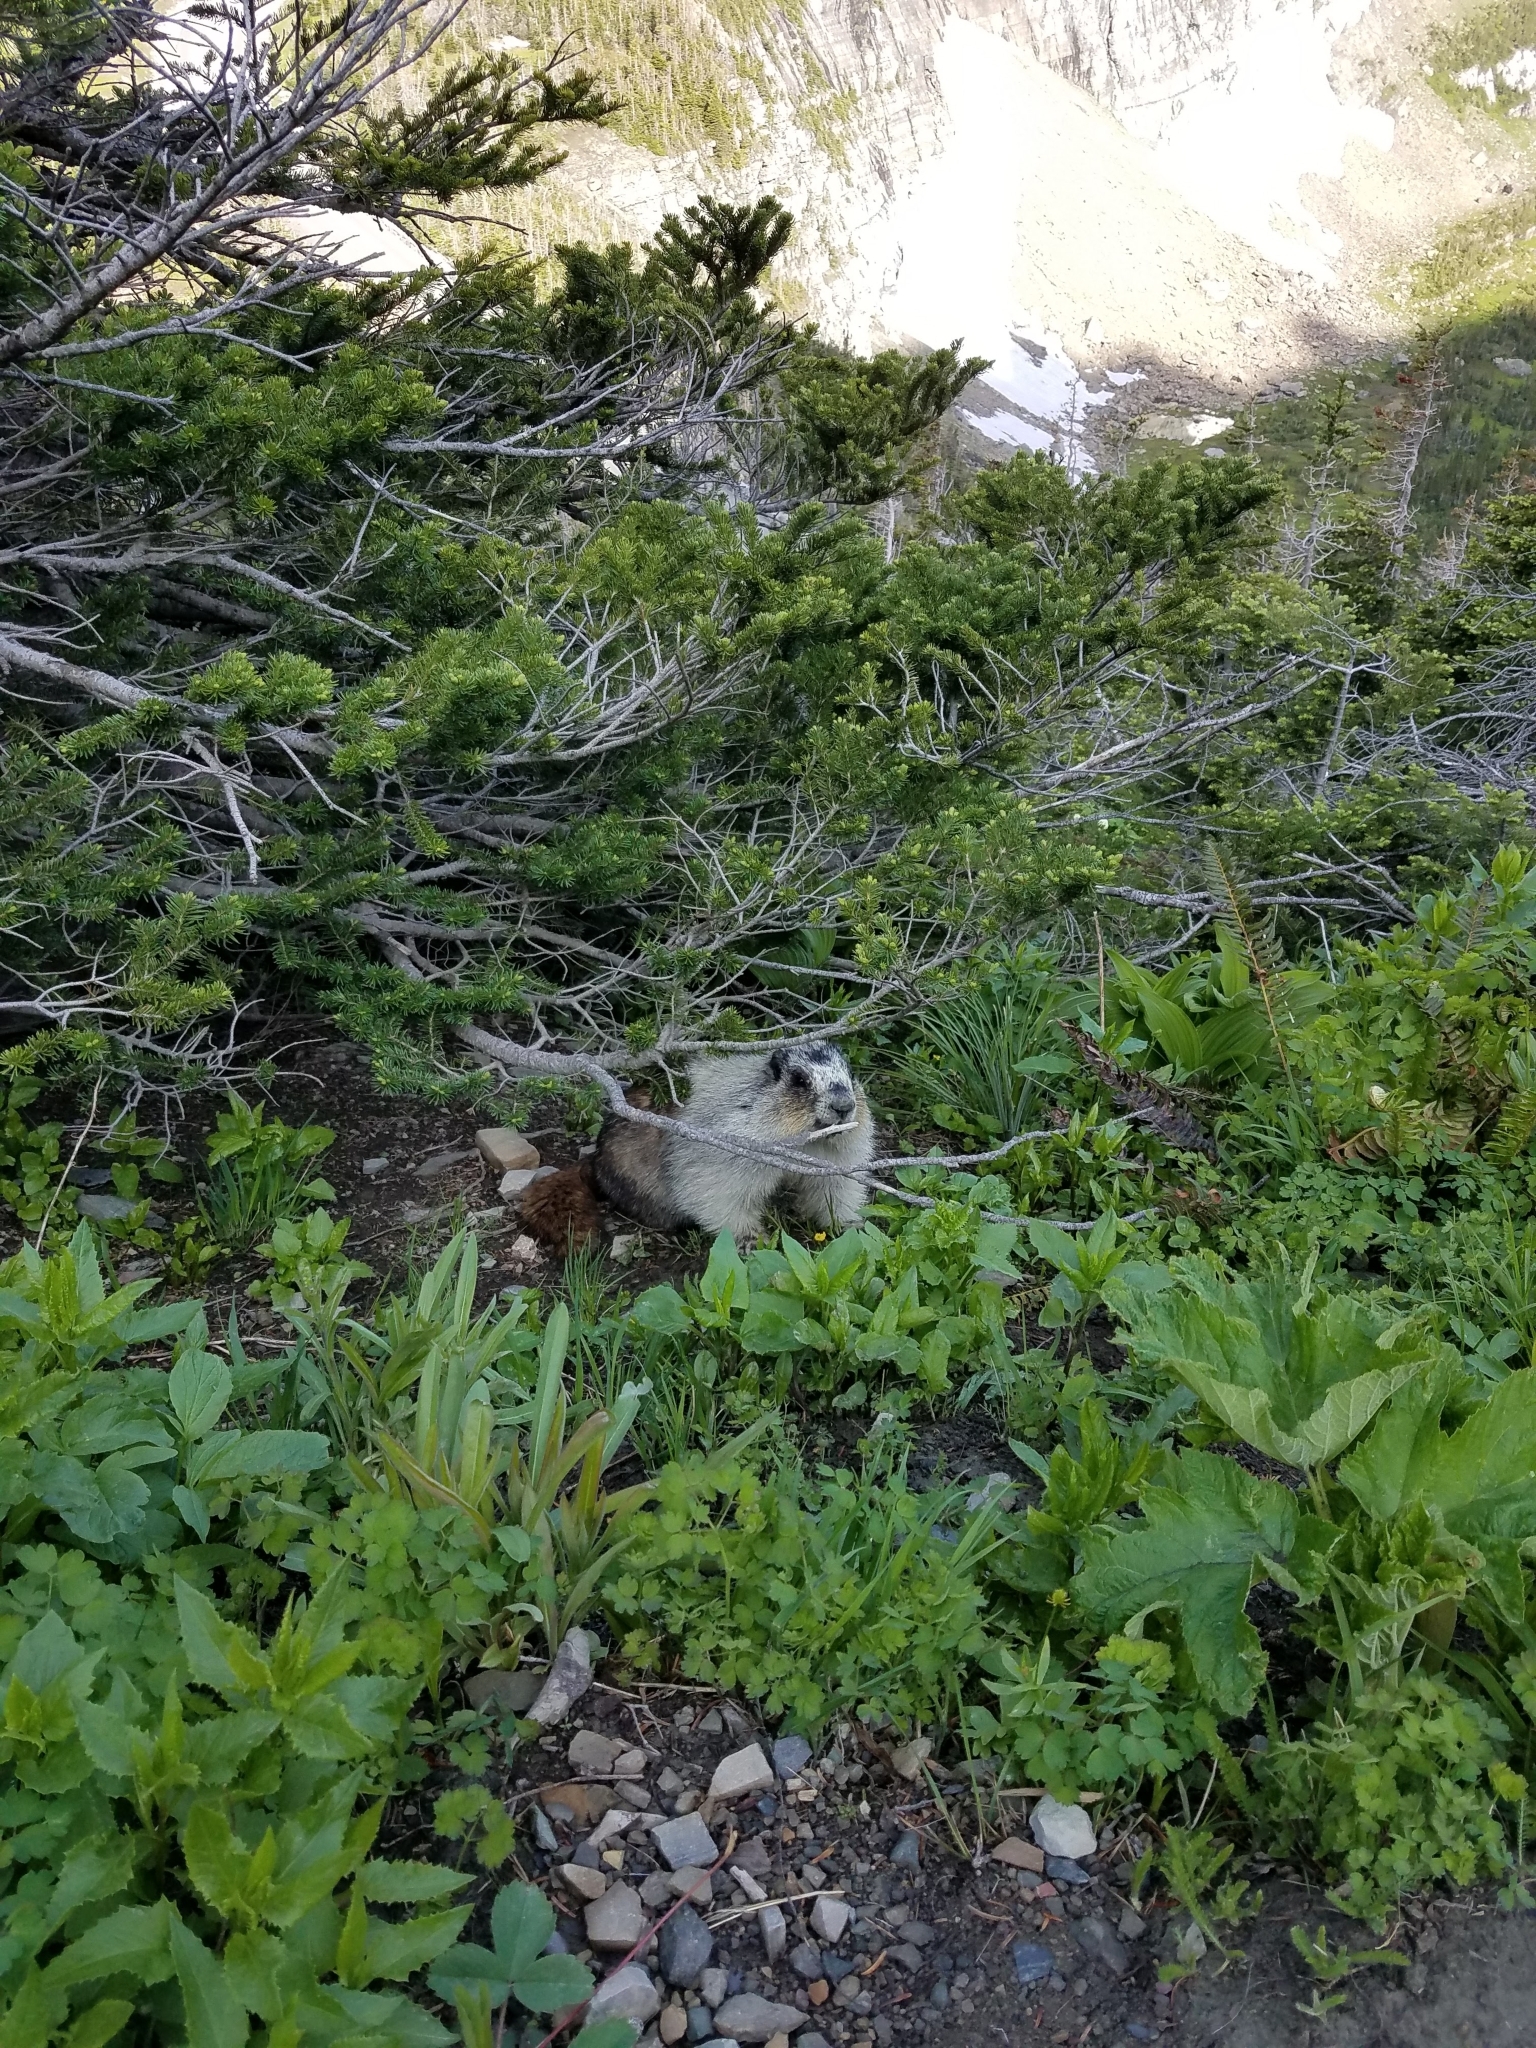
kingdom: Animalia
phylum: Chordata
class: Mammalia
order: Rodentia
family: Sciuridae
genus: Marmota
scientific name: Marmota caligata
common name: Hoary marmot
